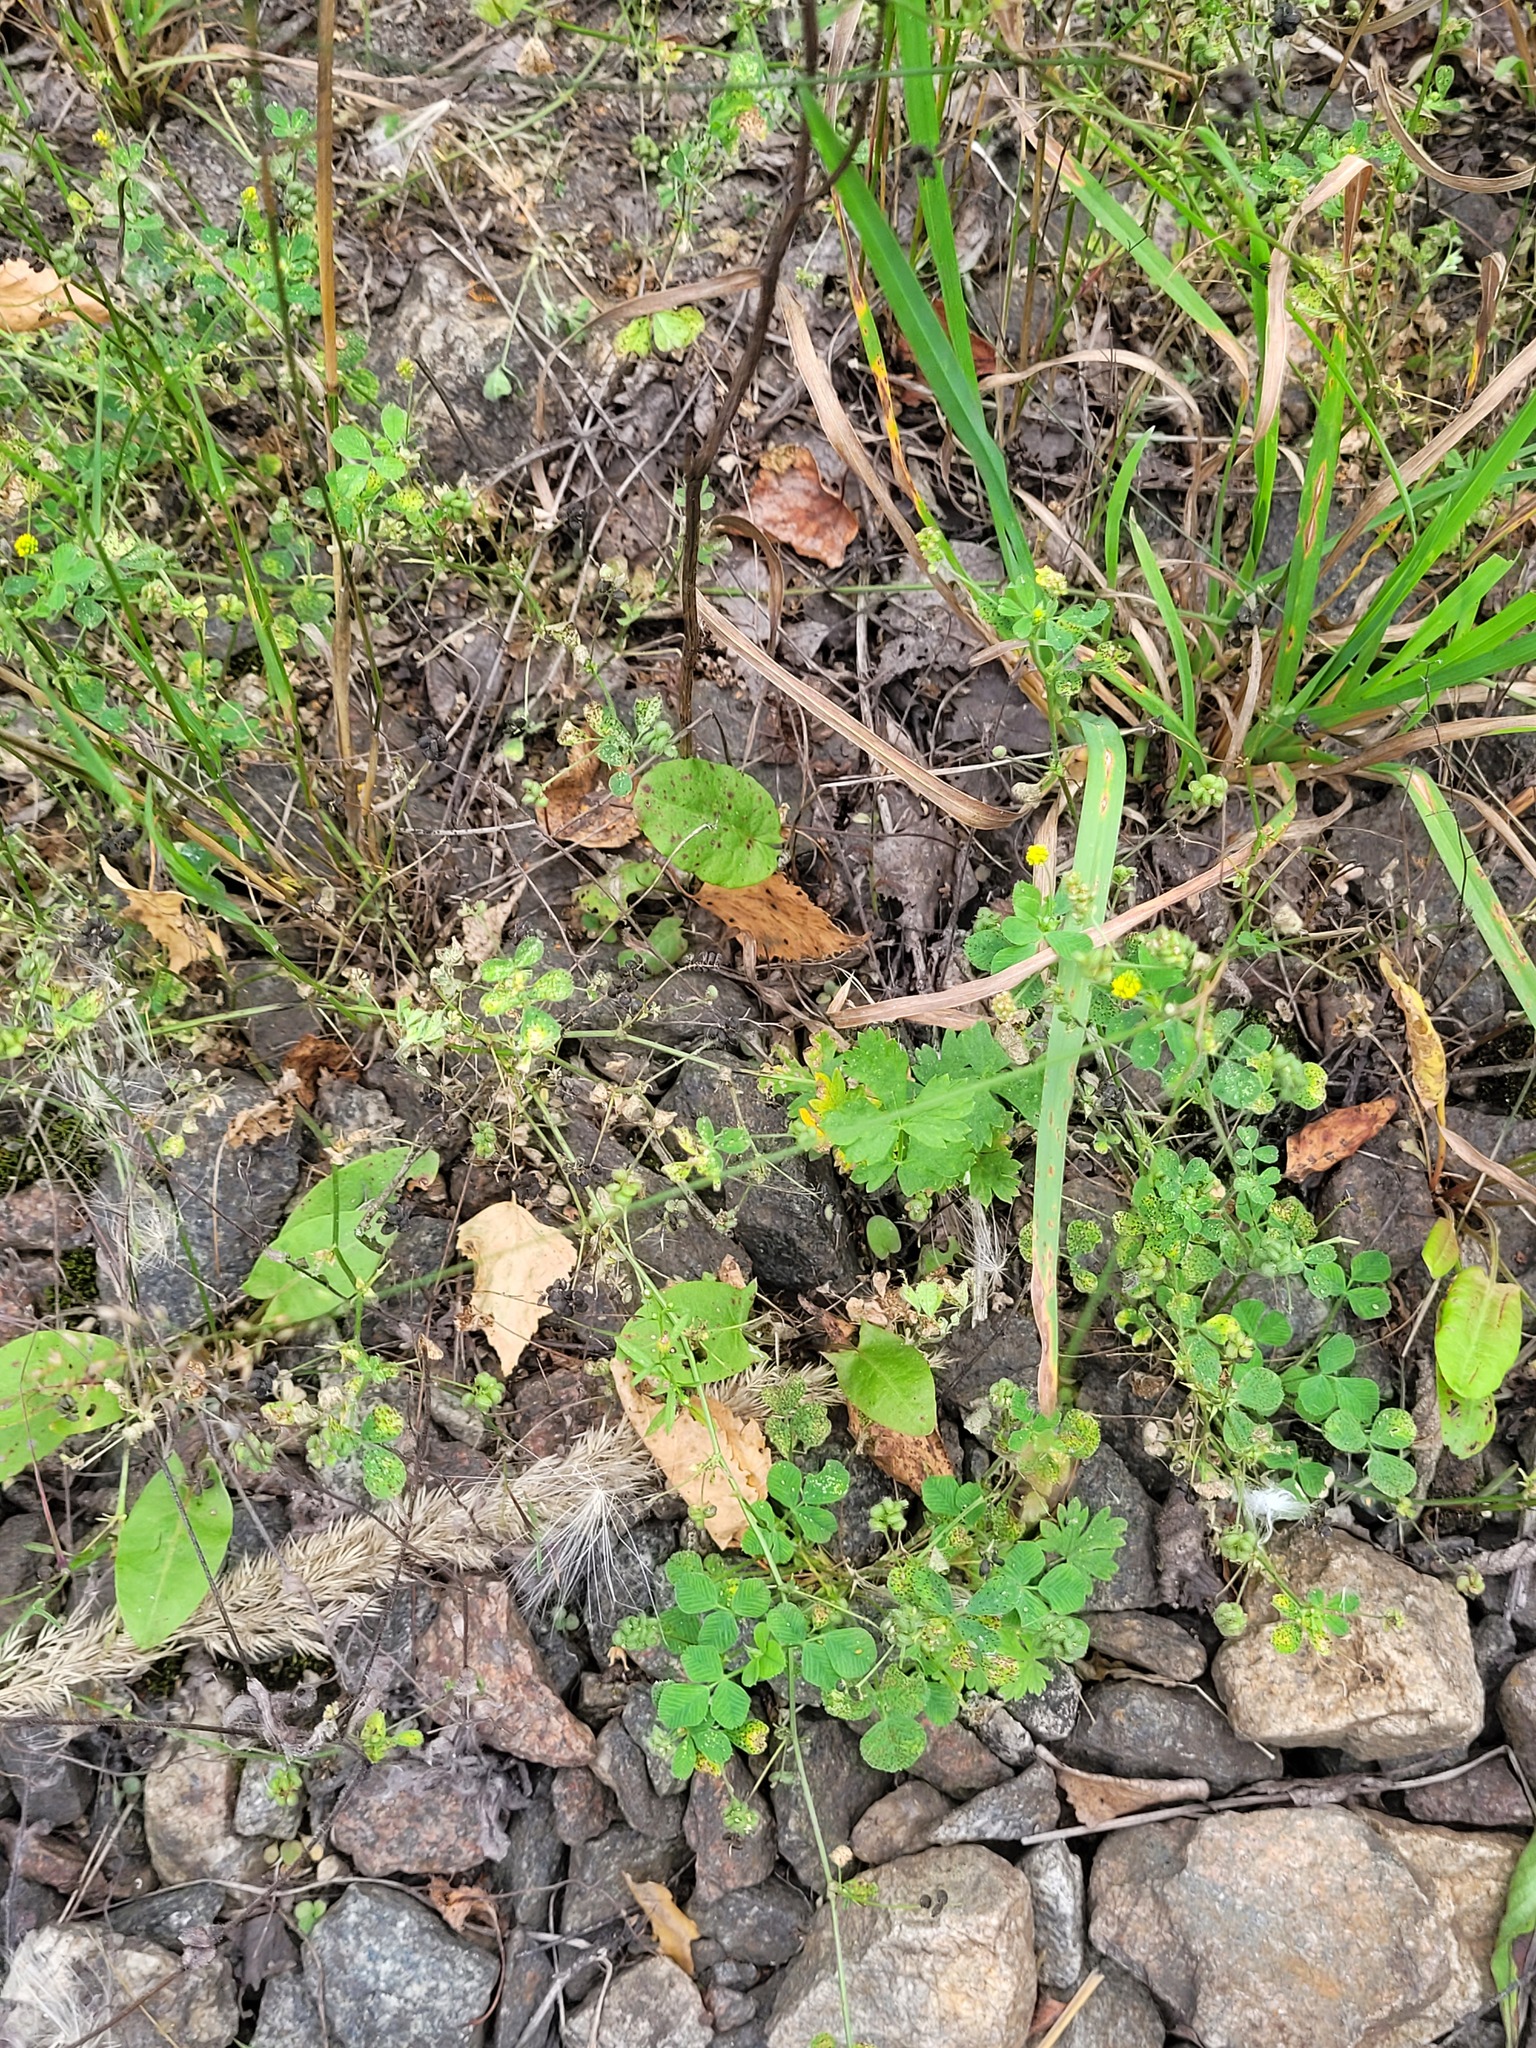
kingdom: Plantae
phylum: Tracheophyta
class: Magnoliopsida
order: Fabales
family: Fabaceae
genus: Medicago
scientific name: Medicago lupulina
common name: Black medick
